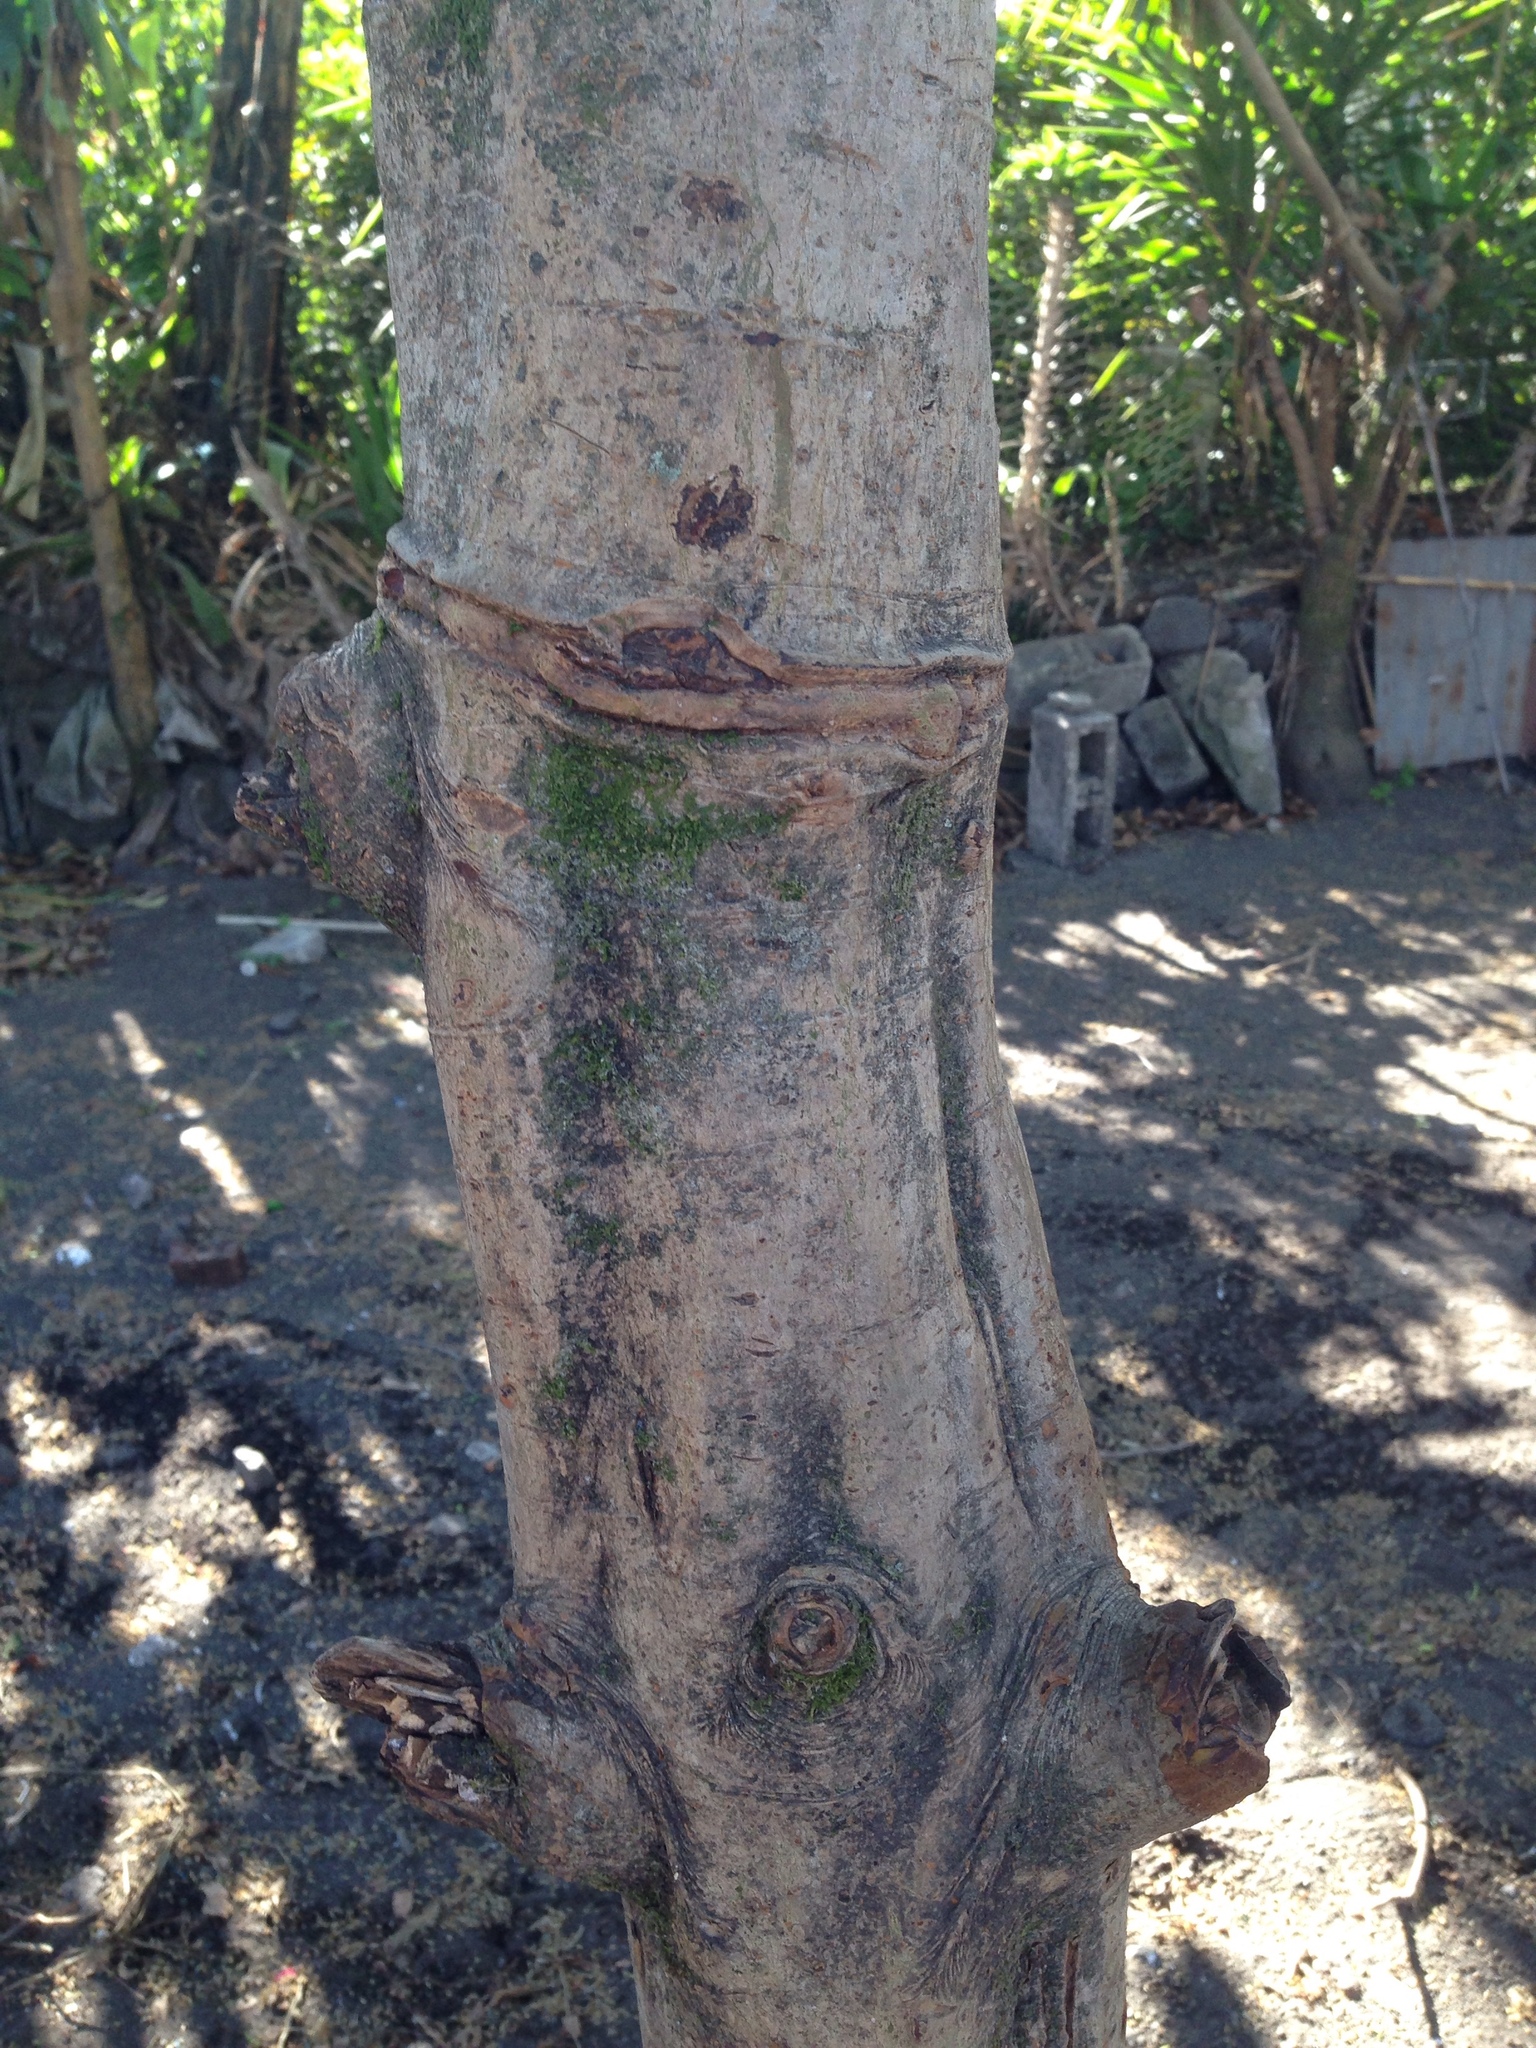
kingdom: Plantae
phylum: Tracheophyta
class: Magnoliopsida
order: Rosales
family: Rosaceae
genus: Rhaphiolepis
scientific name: Rhaphiolepis bibas
